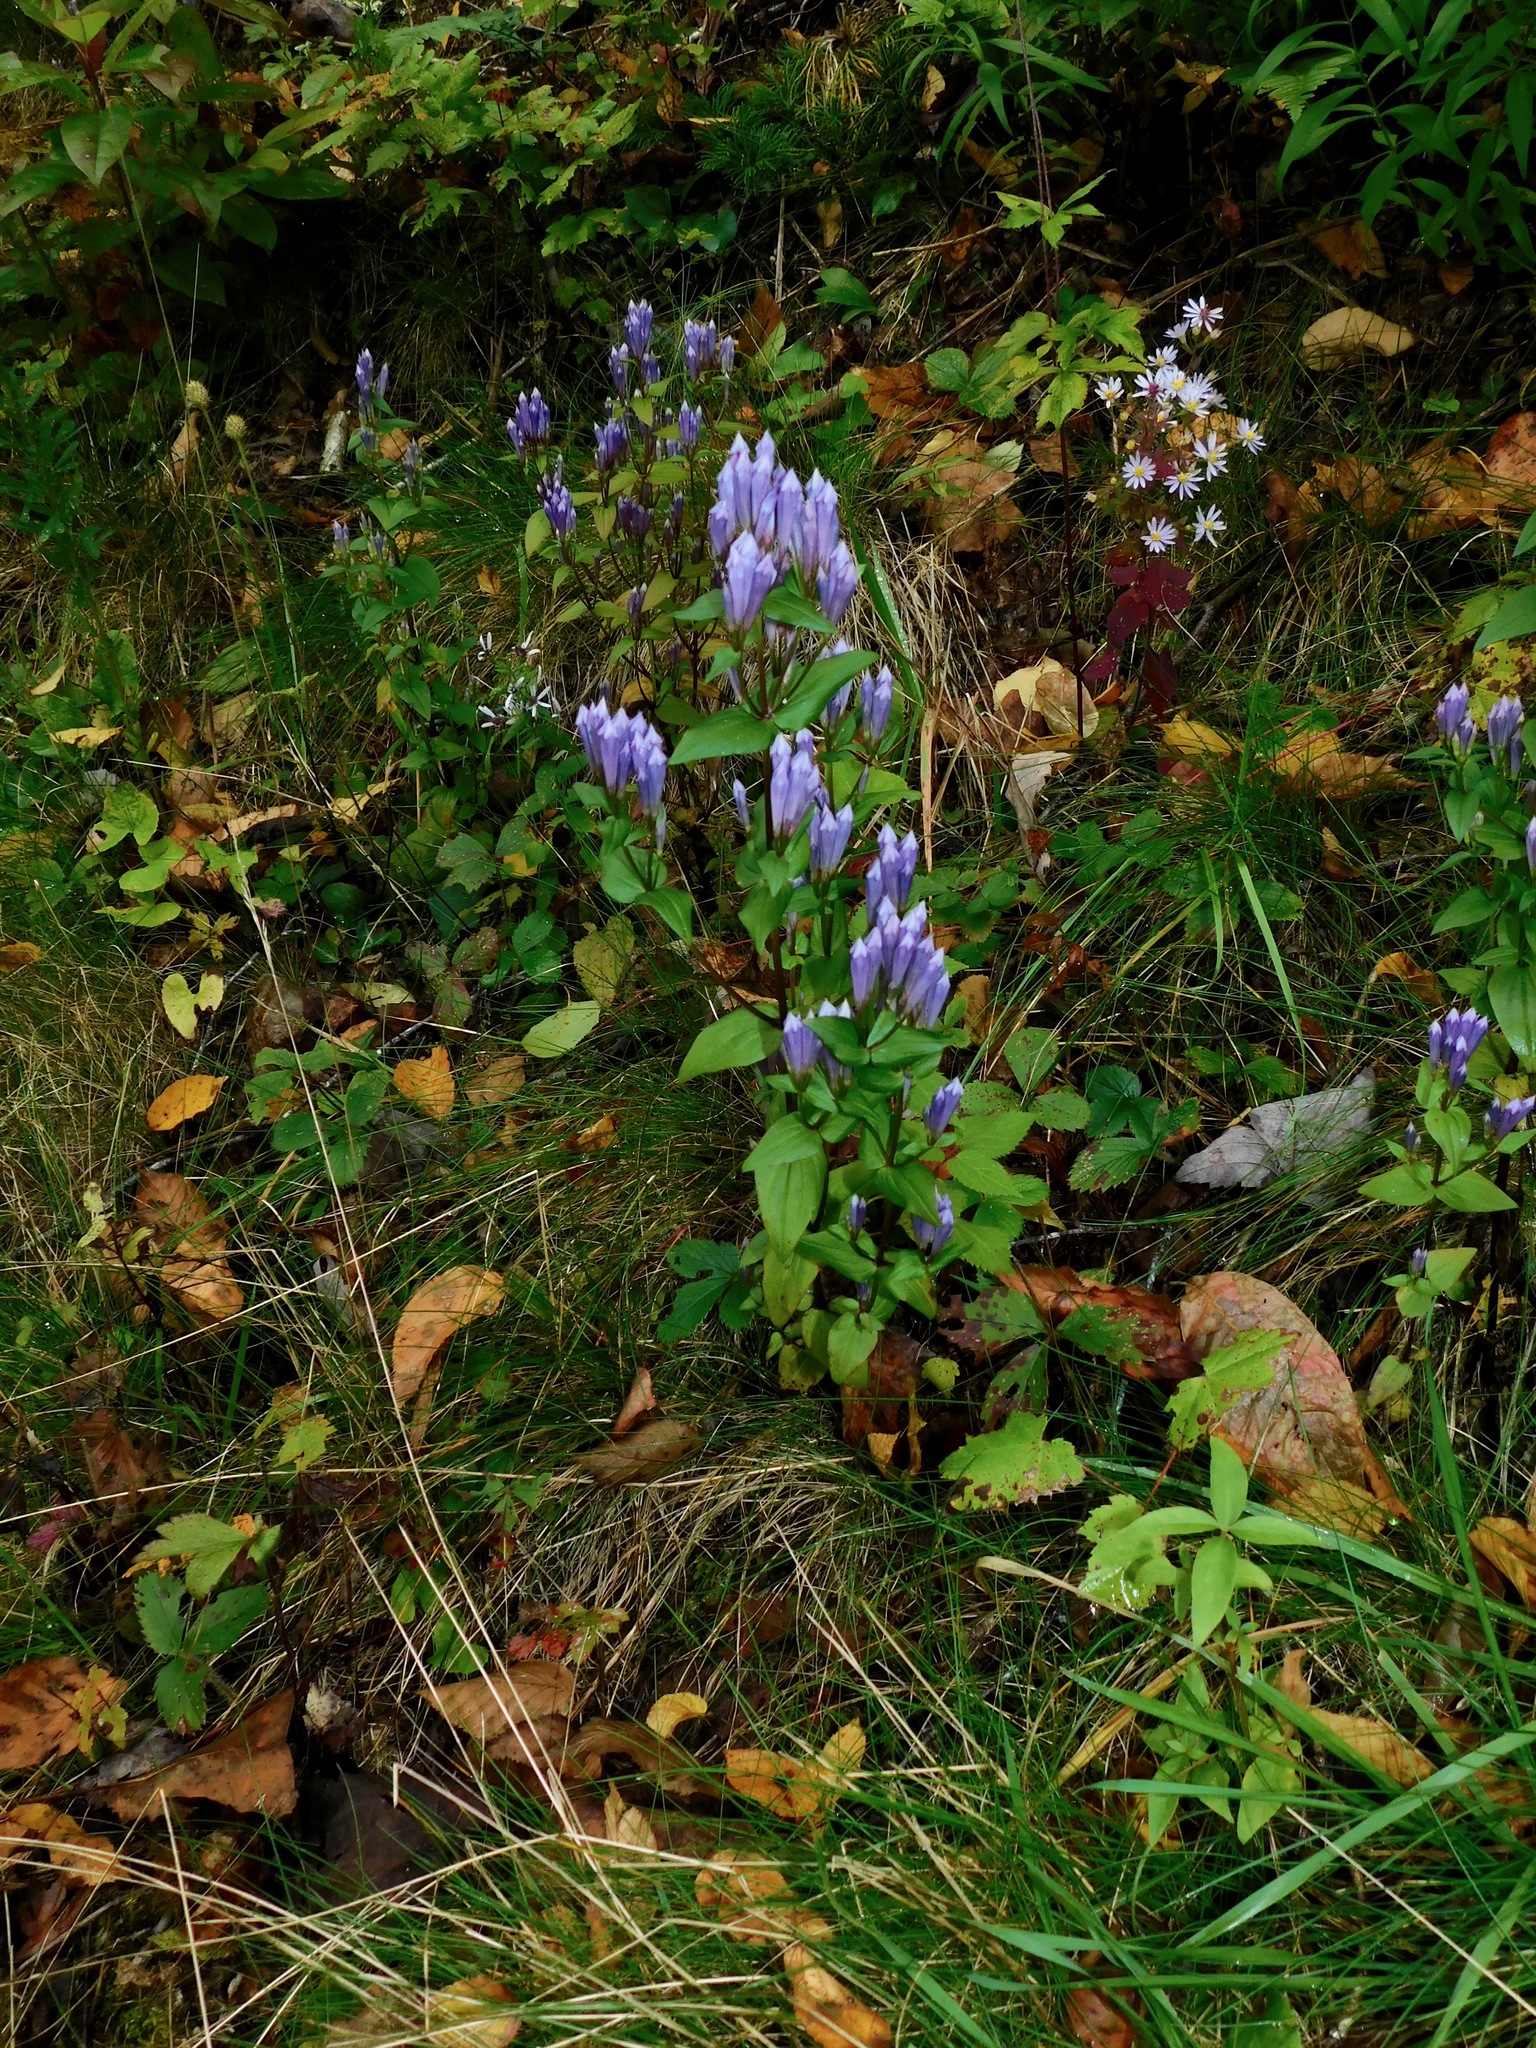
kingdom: Plantae
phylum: Tracheophyta
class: Magnoliopsida
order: Gentianales
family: Gentianaceae
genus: Gentianella
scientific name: Gentianella quinquefolia
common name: Agueweed
